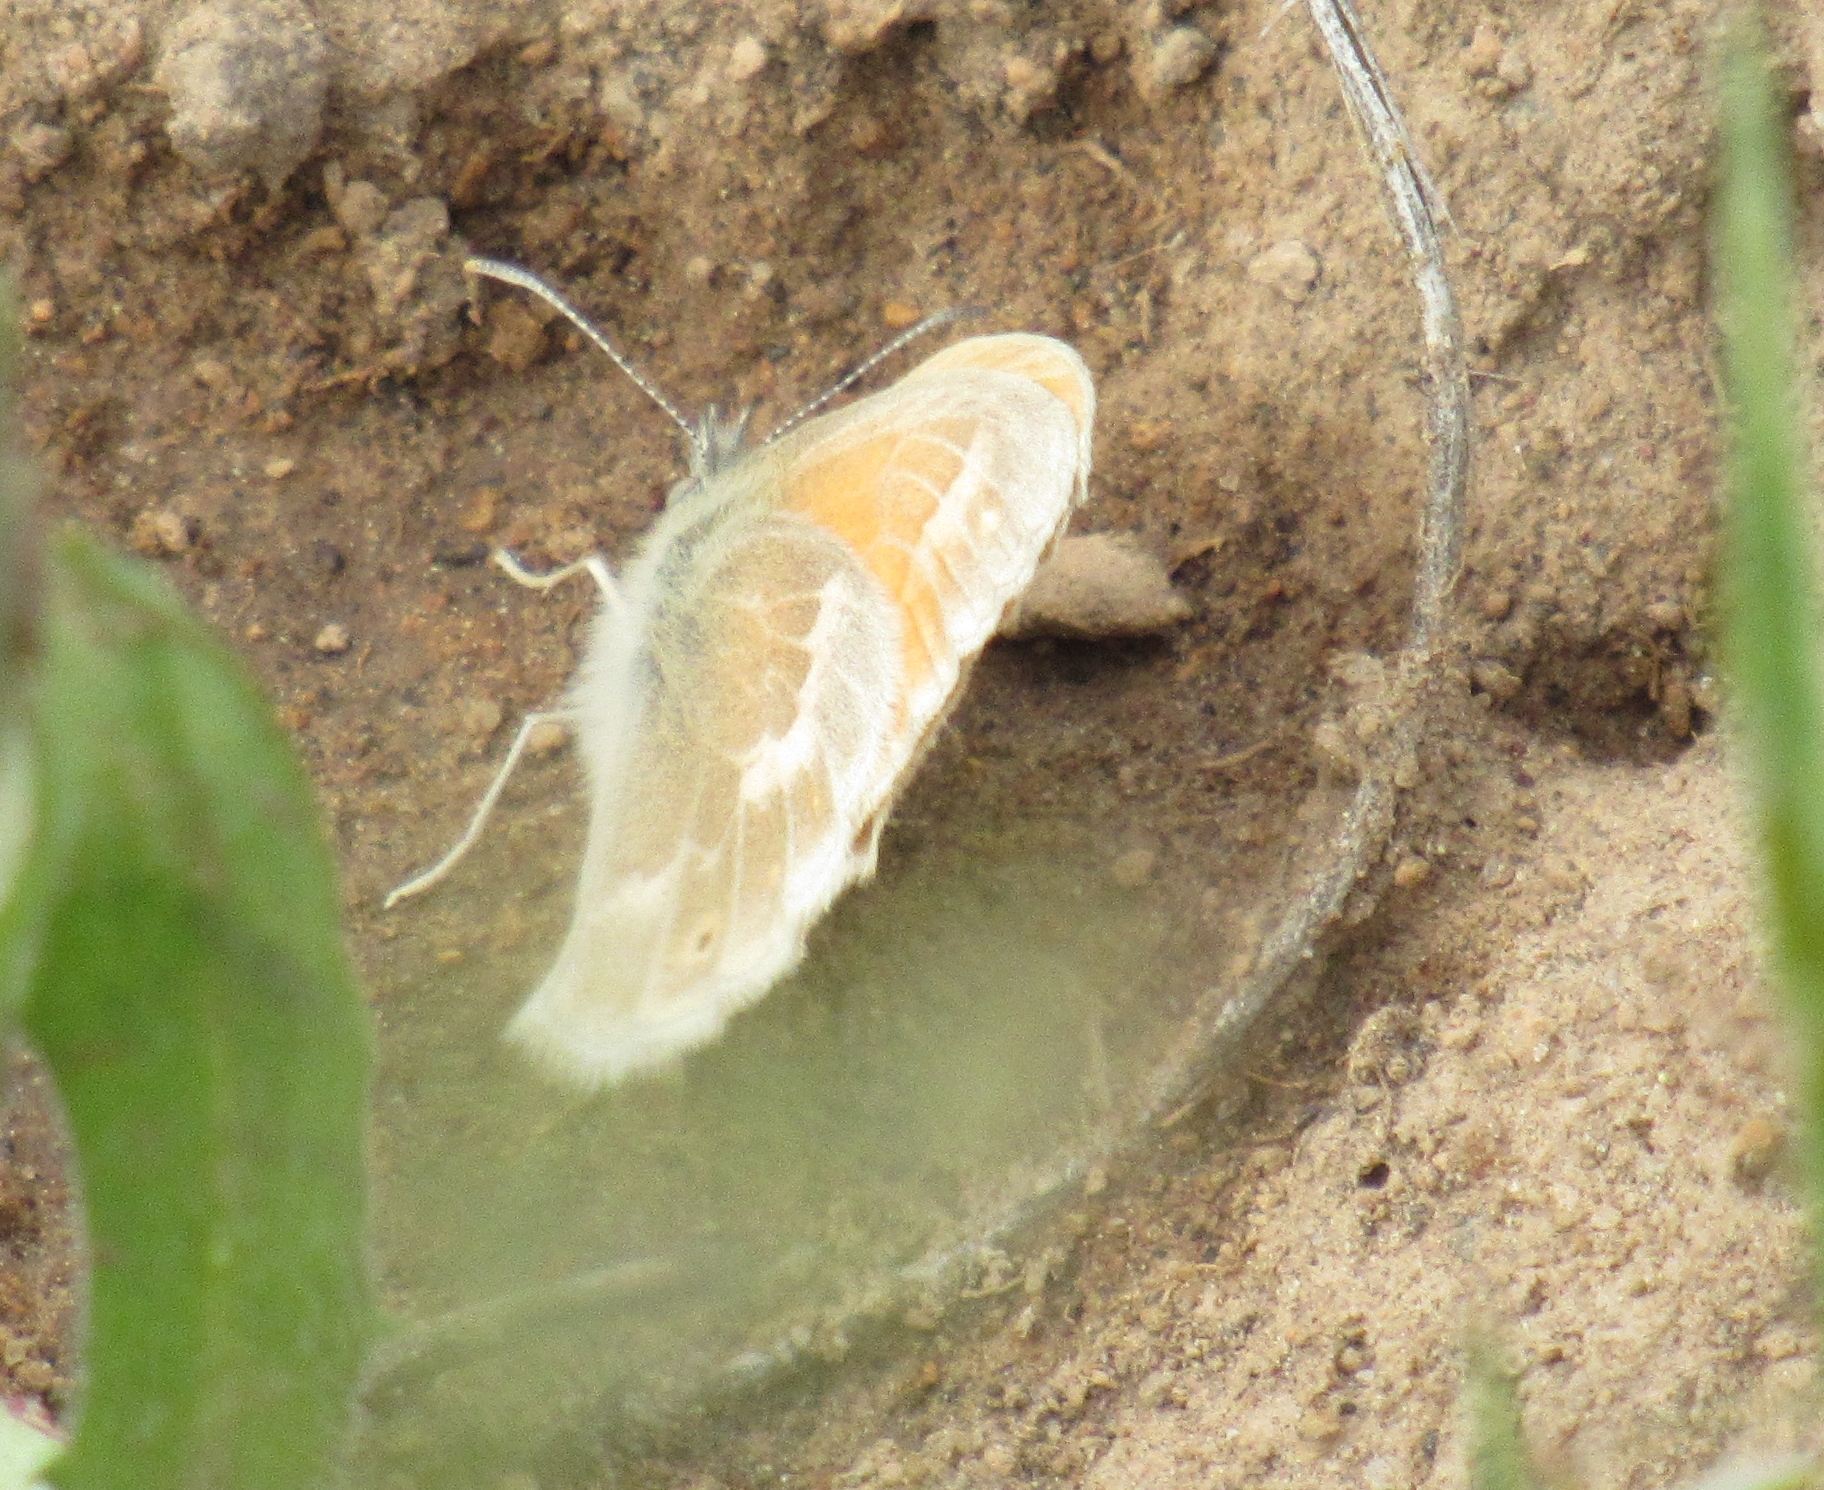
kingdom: Animalia
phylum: Arthropoda
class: Insecta
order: Lepidoptera
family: Nymphalidae
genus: Coenonympha
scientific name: Coenonympha california
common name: Common ringlet
